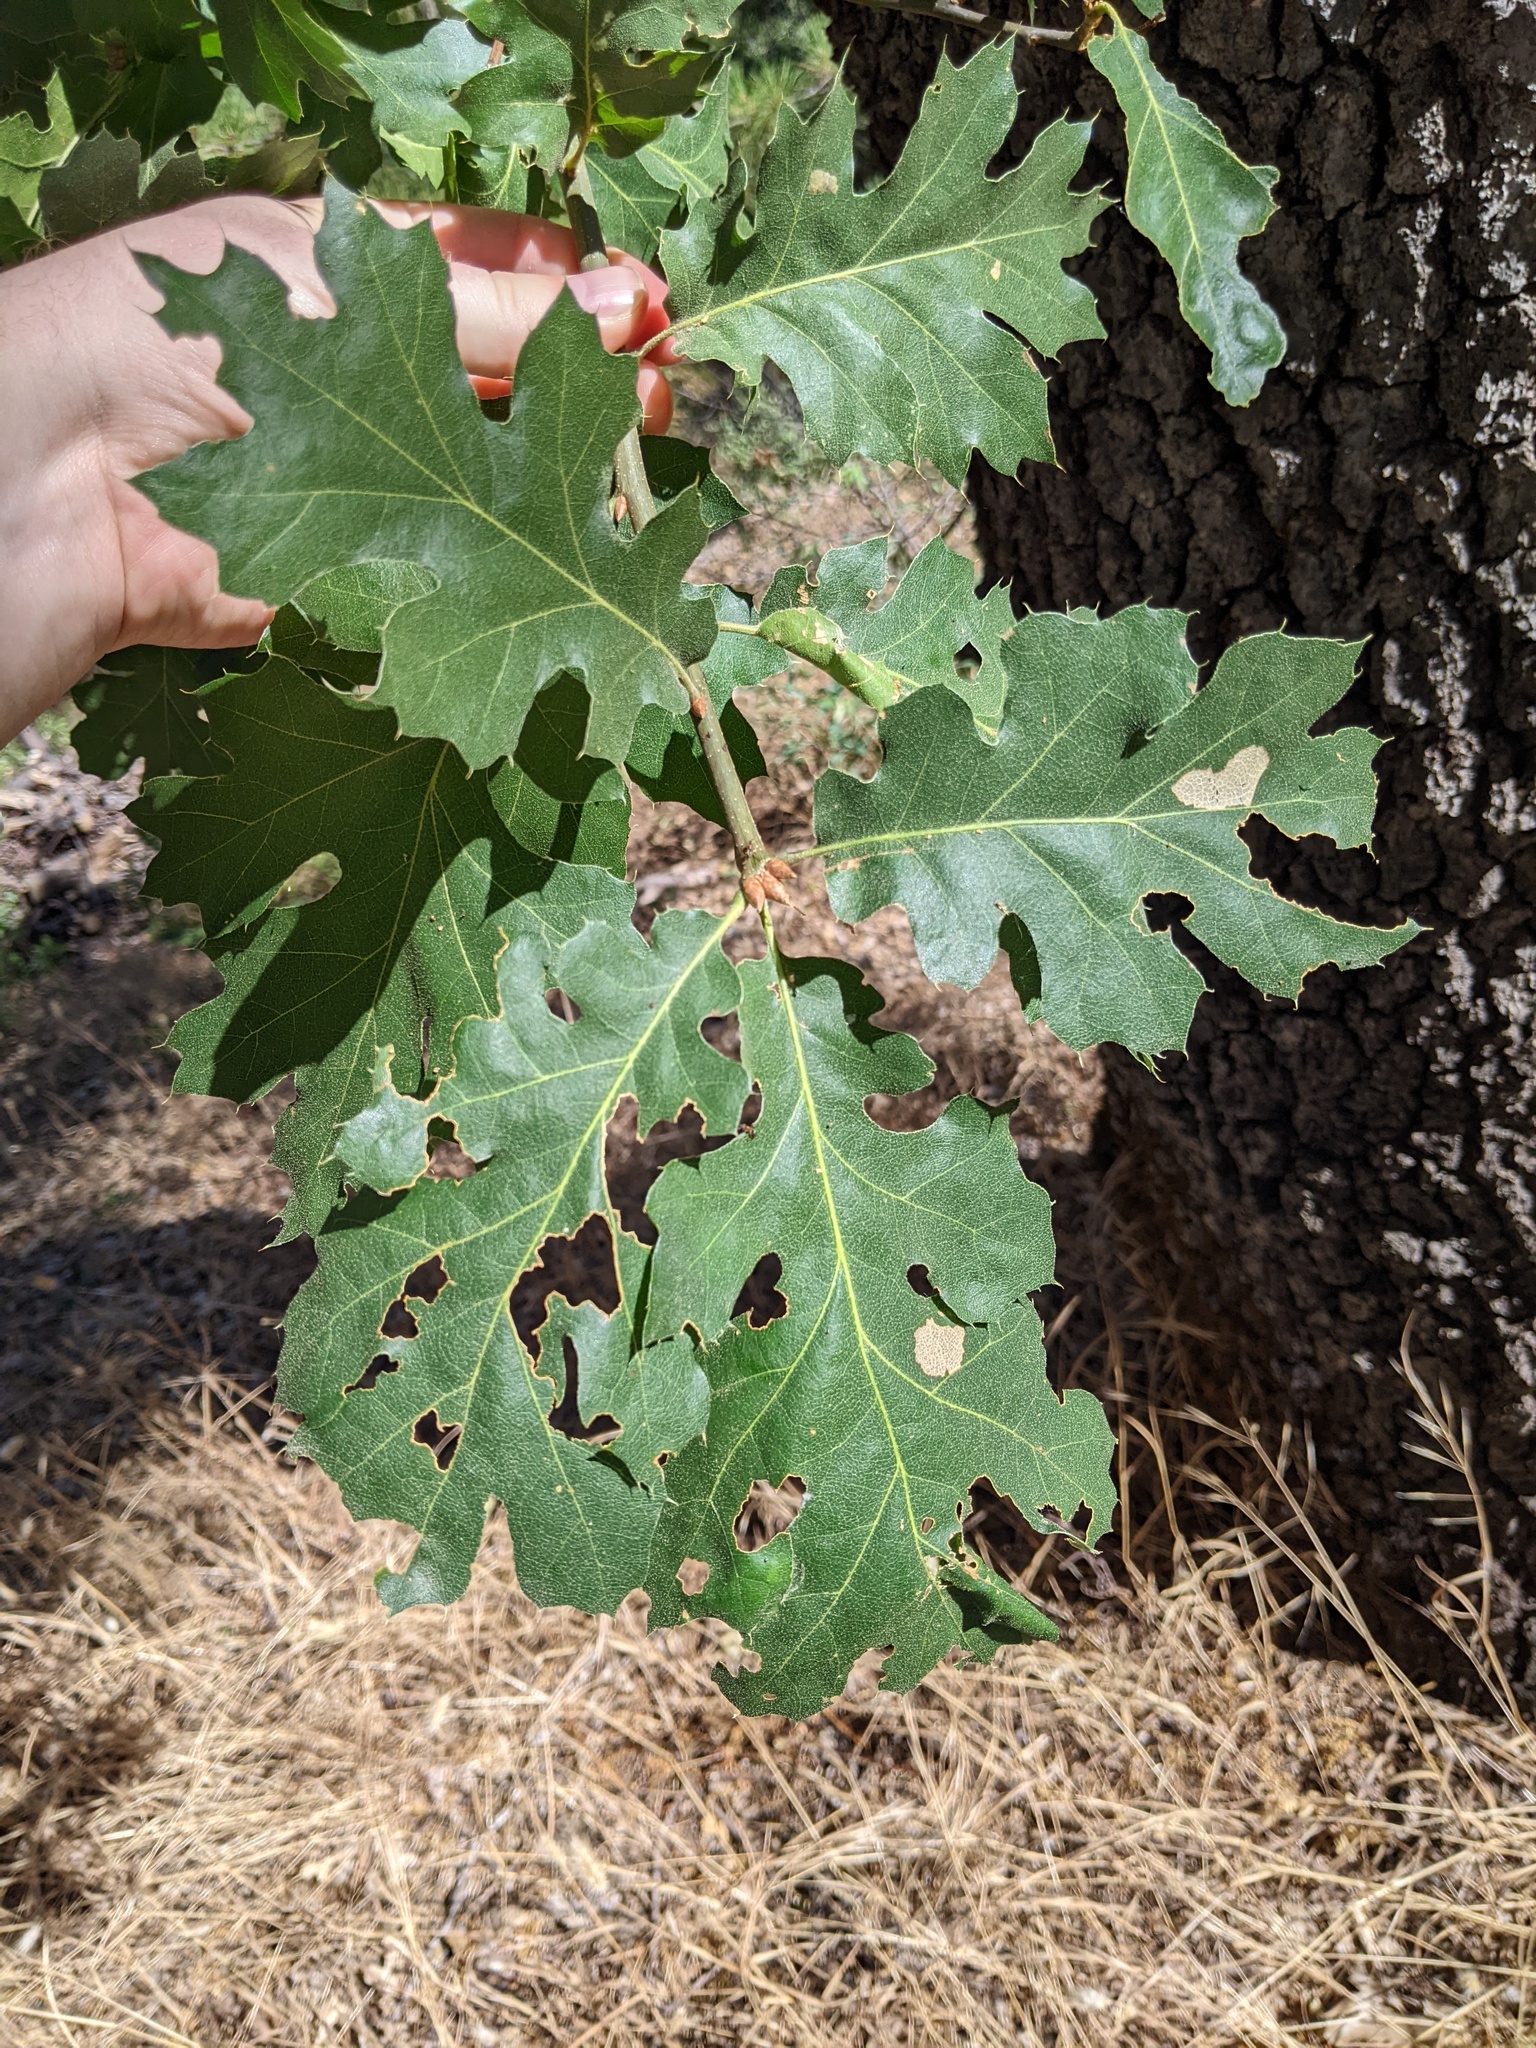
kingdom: Plantae
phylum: Tracheophyta
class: Magnoliopsida
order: Fagales
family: Fagaceae
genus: Quercus
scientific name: Quercus kelloggii
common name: California black oak
